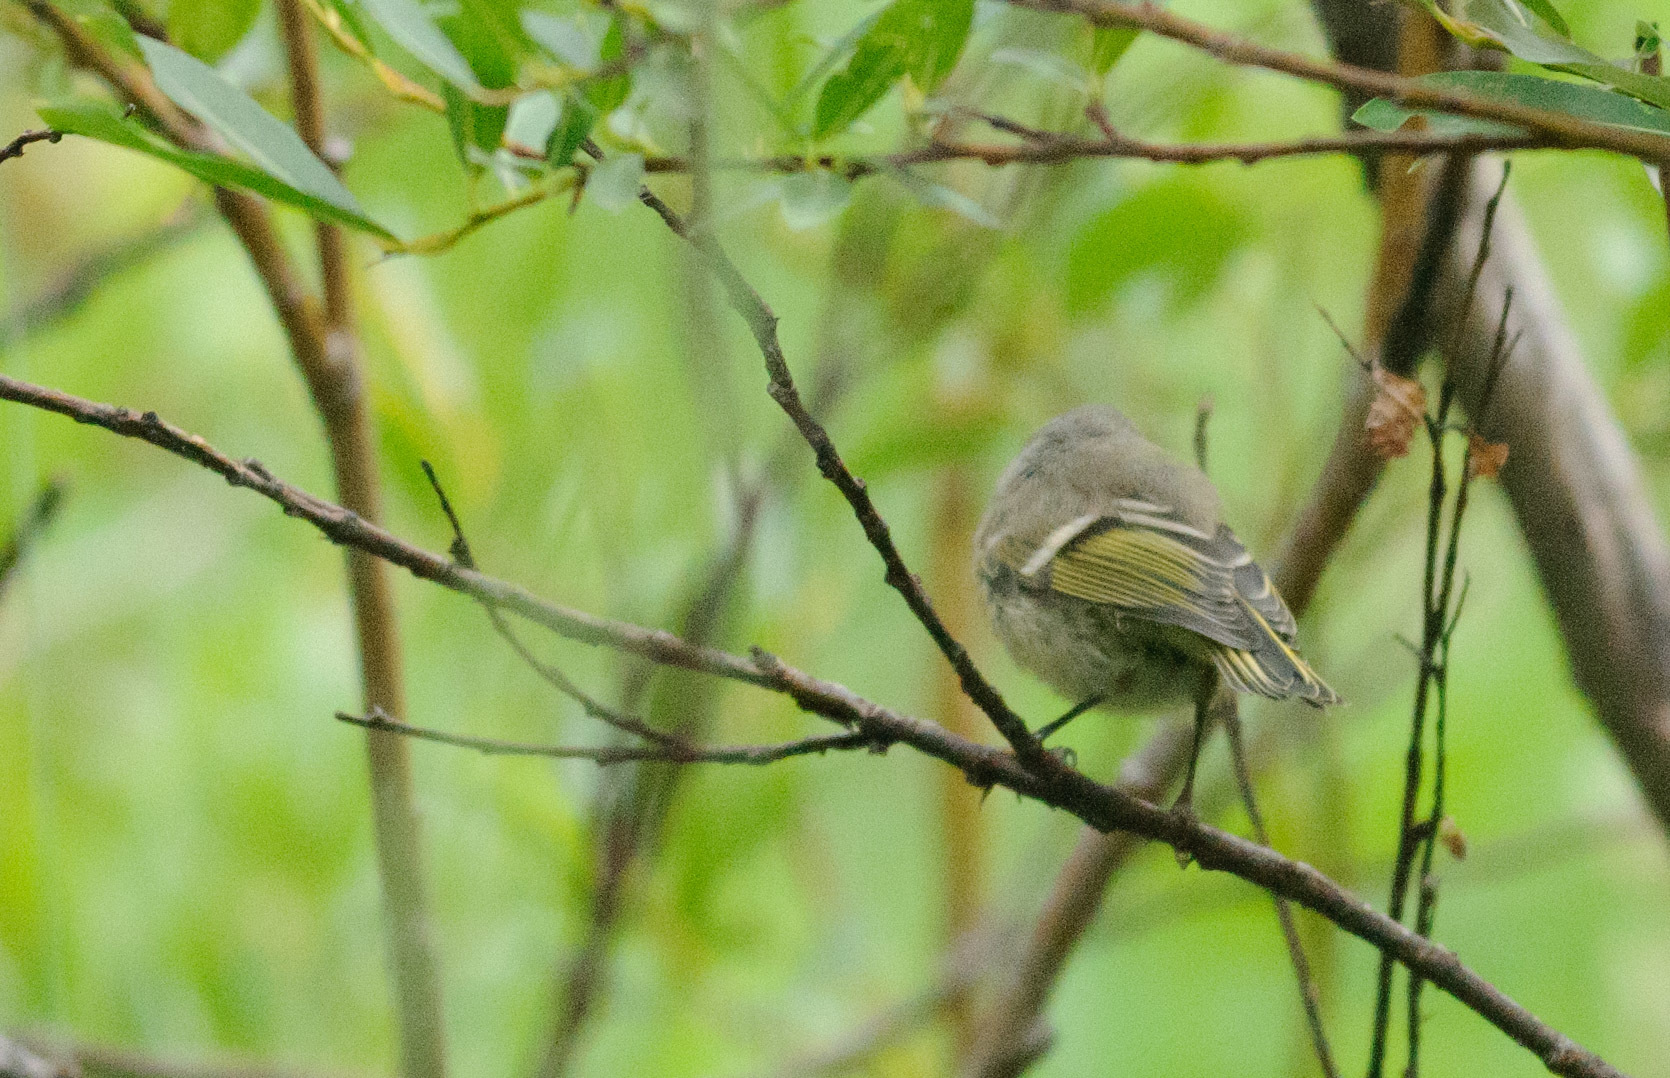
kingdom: Animalia
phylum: Chordata
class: Aves
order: Passeriformes
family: Regulidae
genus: Regulus
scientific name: Regulus calendula
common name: Ruby-crowned kinglet
